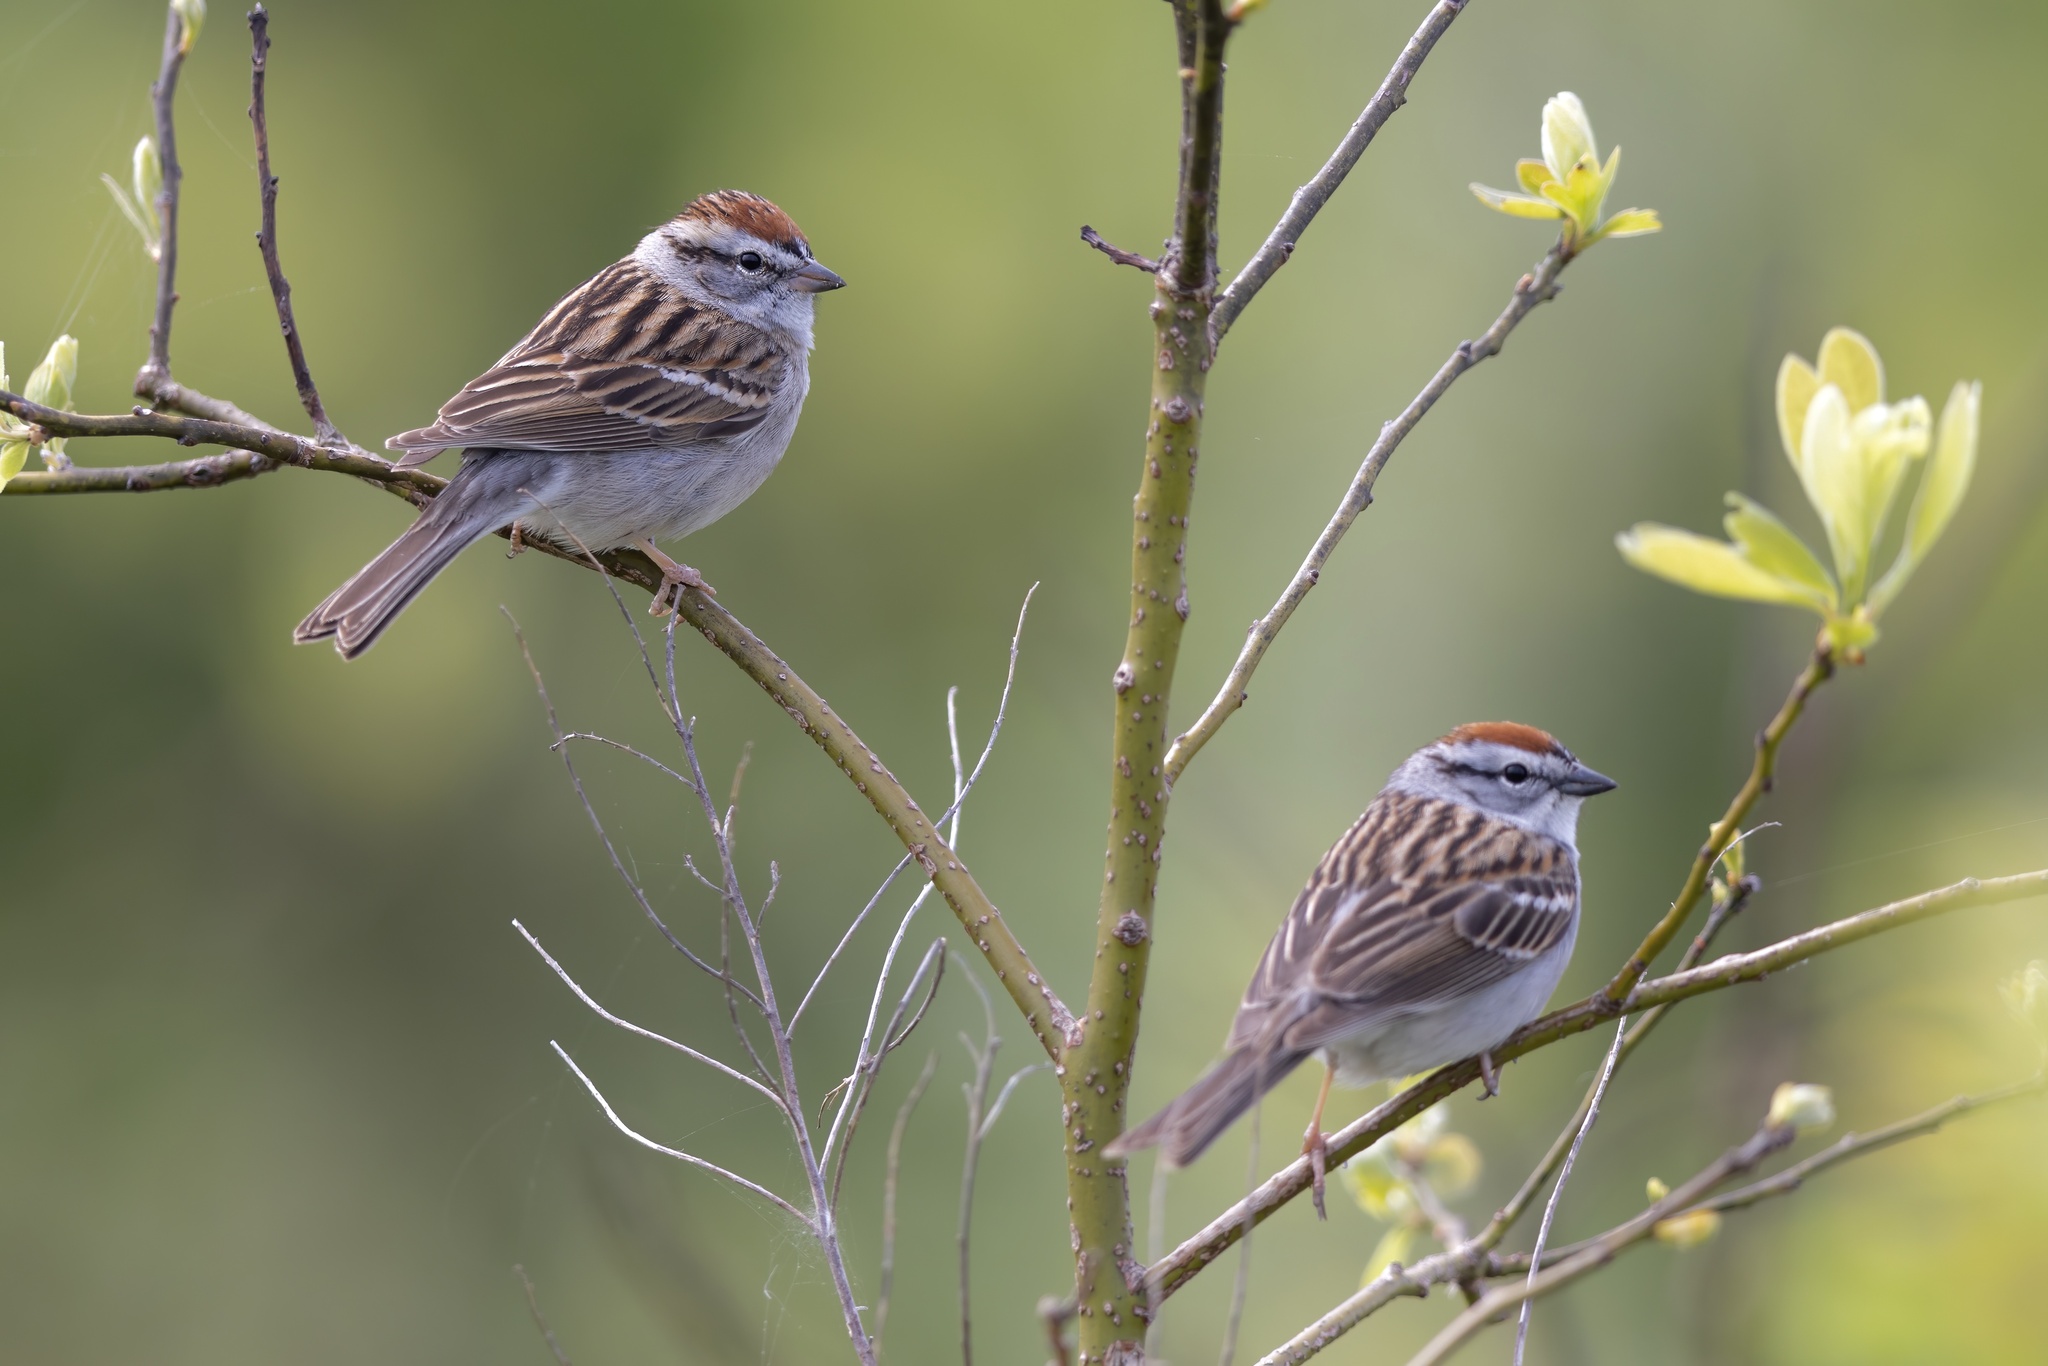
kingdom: Animalia
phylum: Chordata
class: Aves
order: Passeriformes
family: Passerellidae
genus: Spizella
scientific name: Spizella passerina
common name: Chipping sparrow
